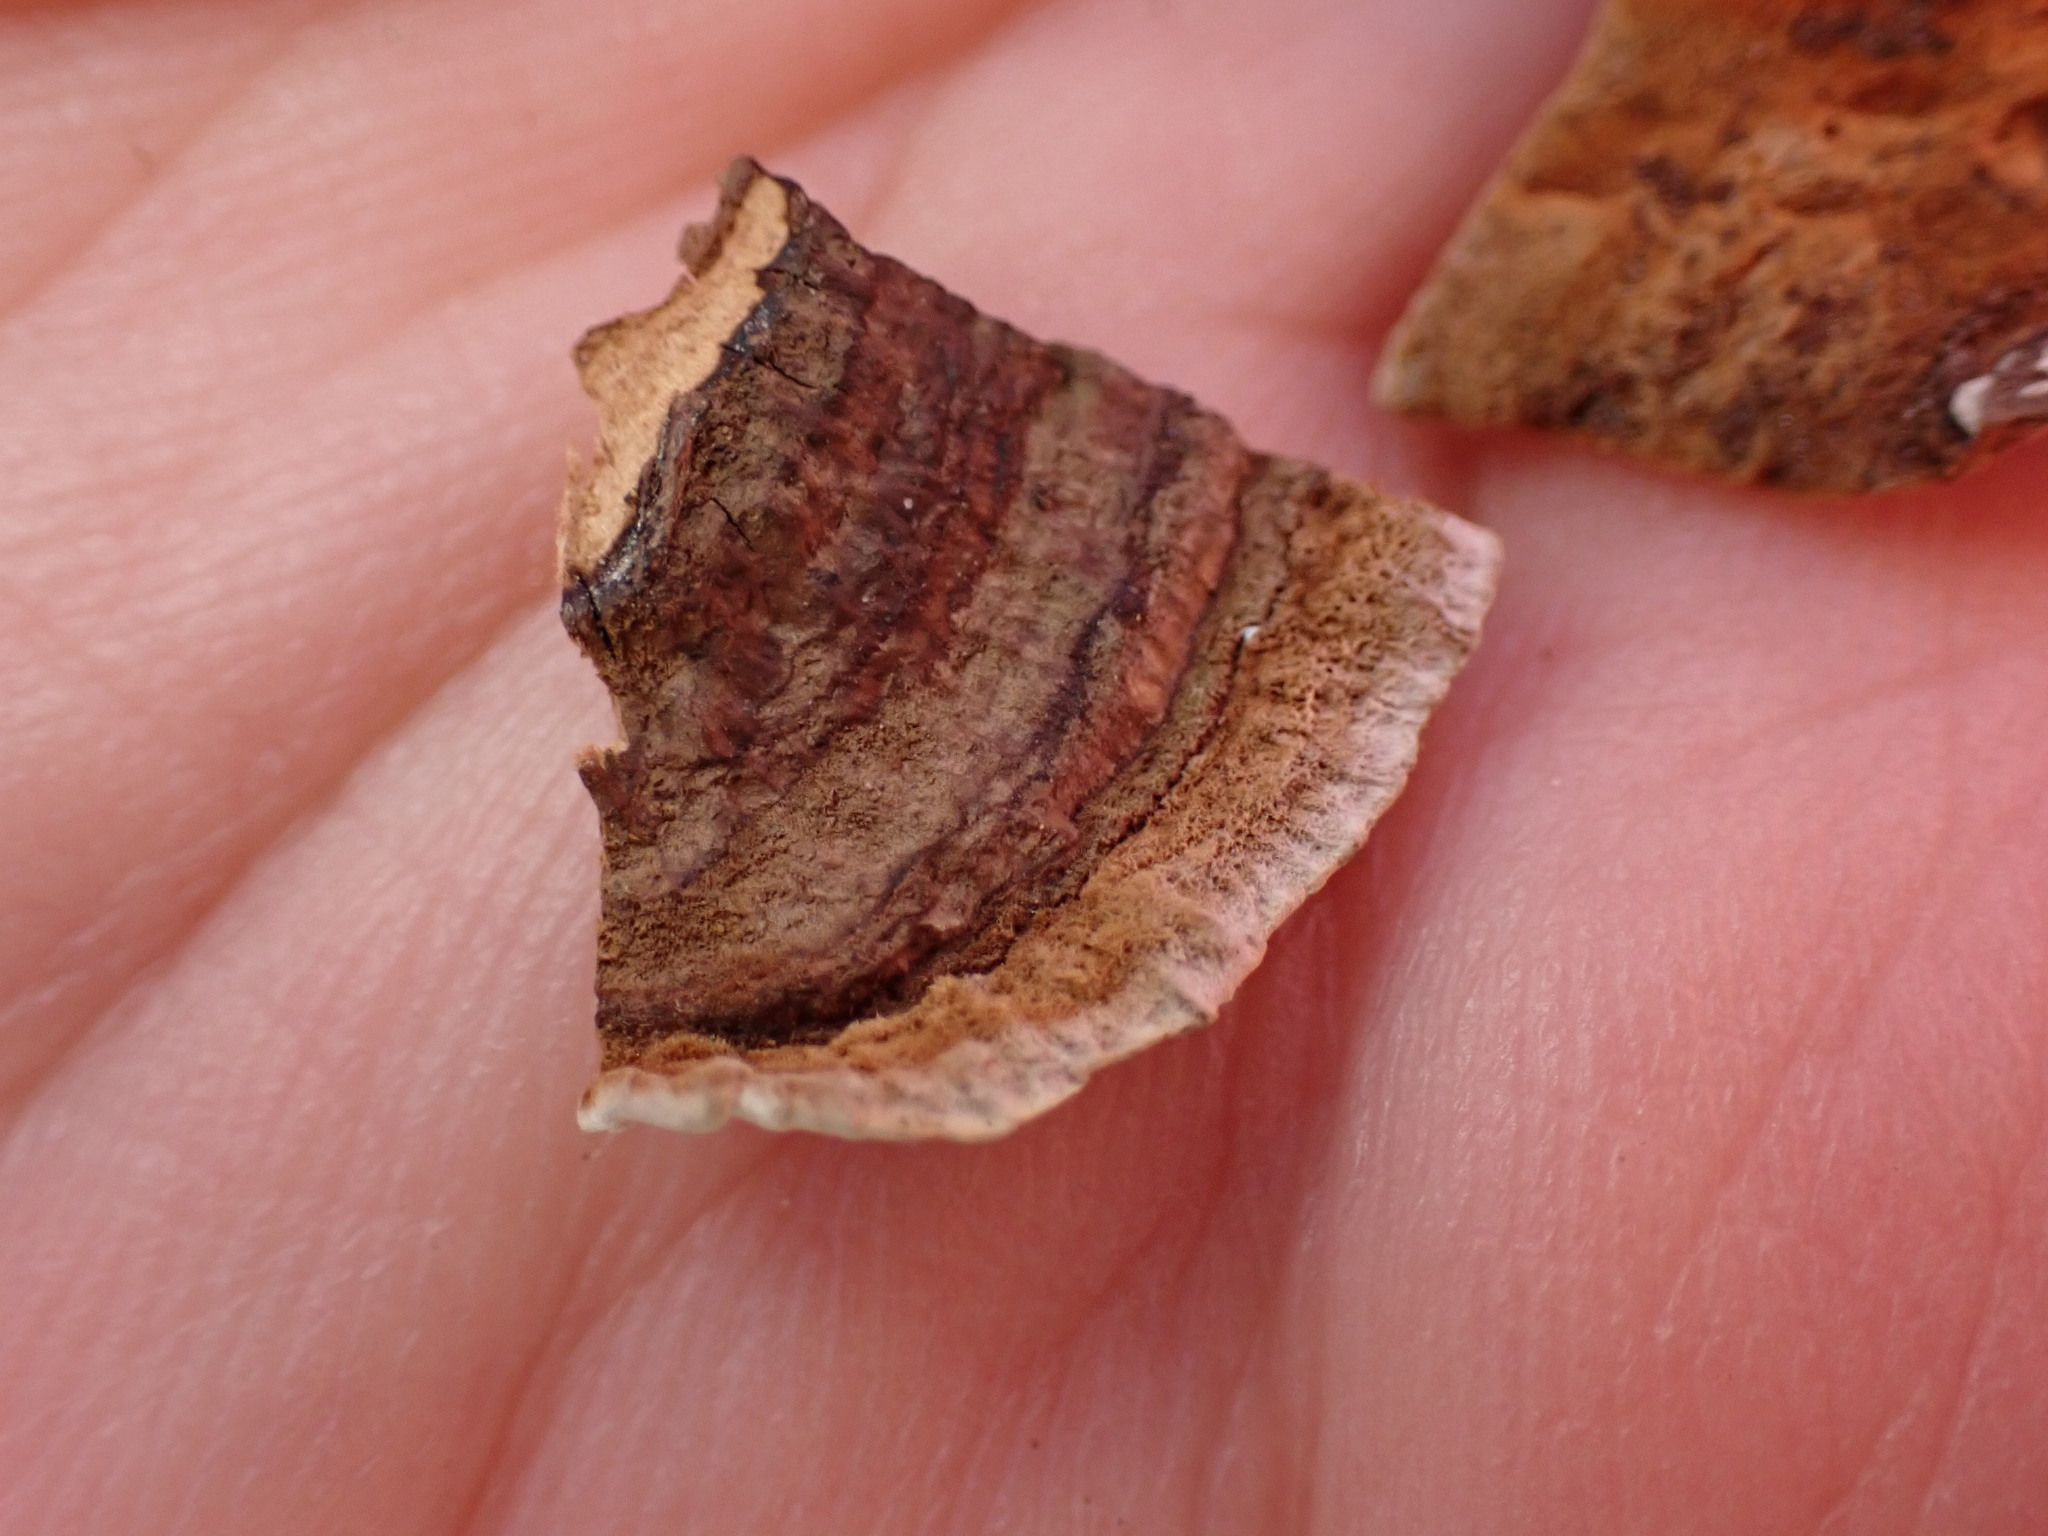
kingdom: Fungi
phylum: Basidiomycota
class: Agaricomycetes
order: Russulales
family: Stereaceae
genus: Xylobolus
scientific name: Xylobolus subpileatus
